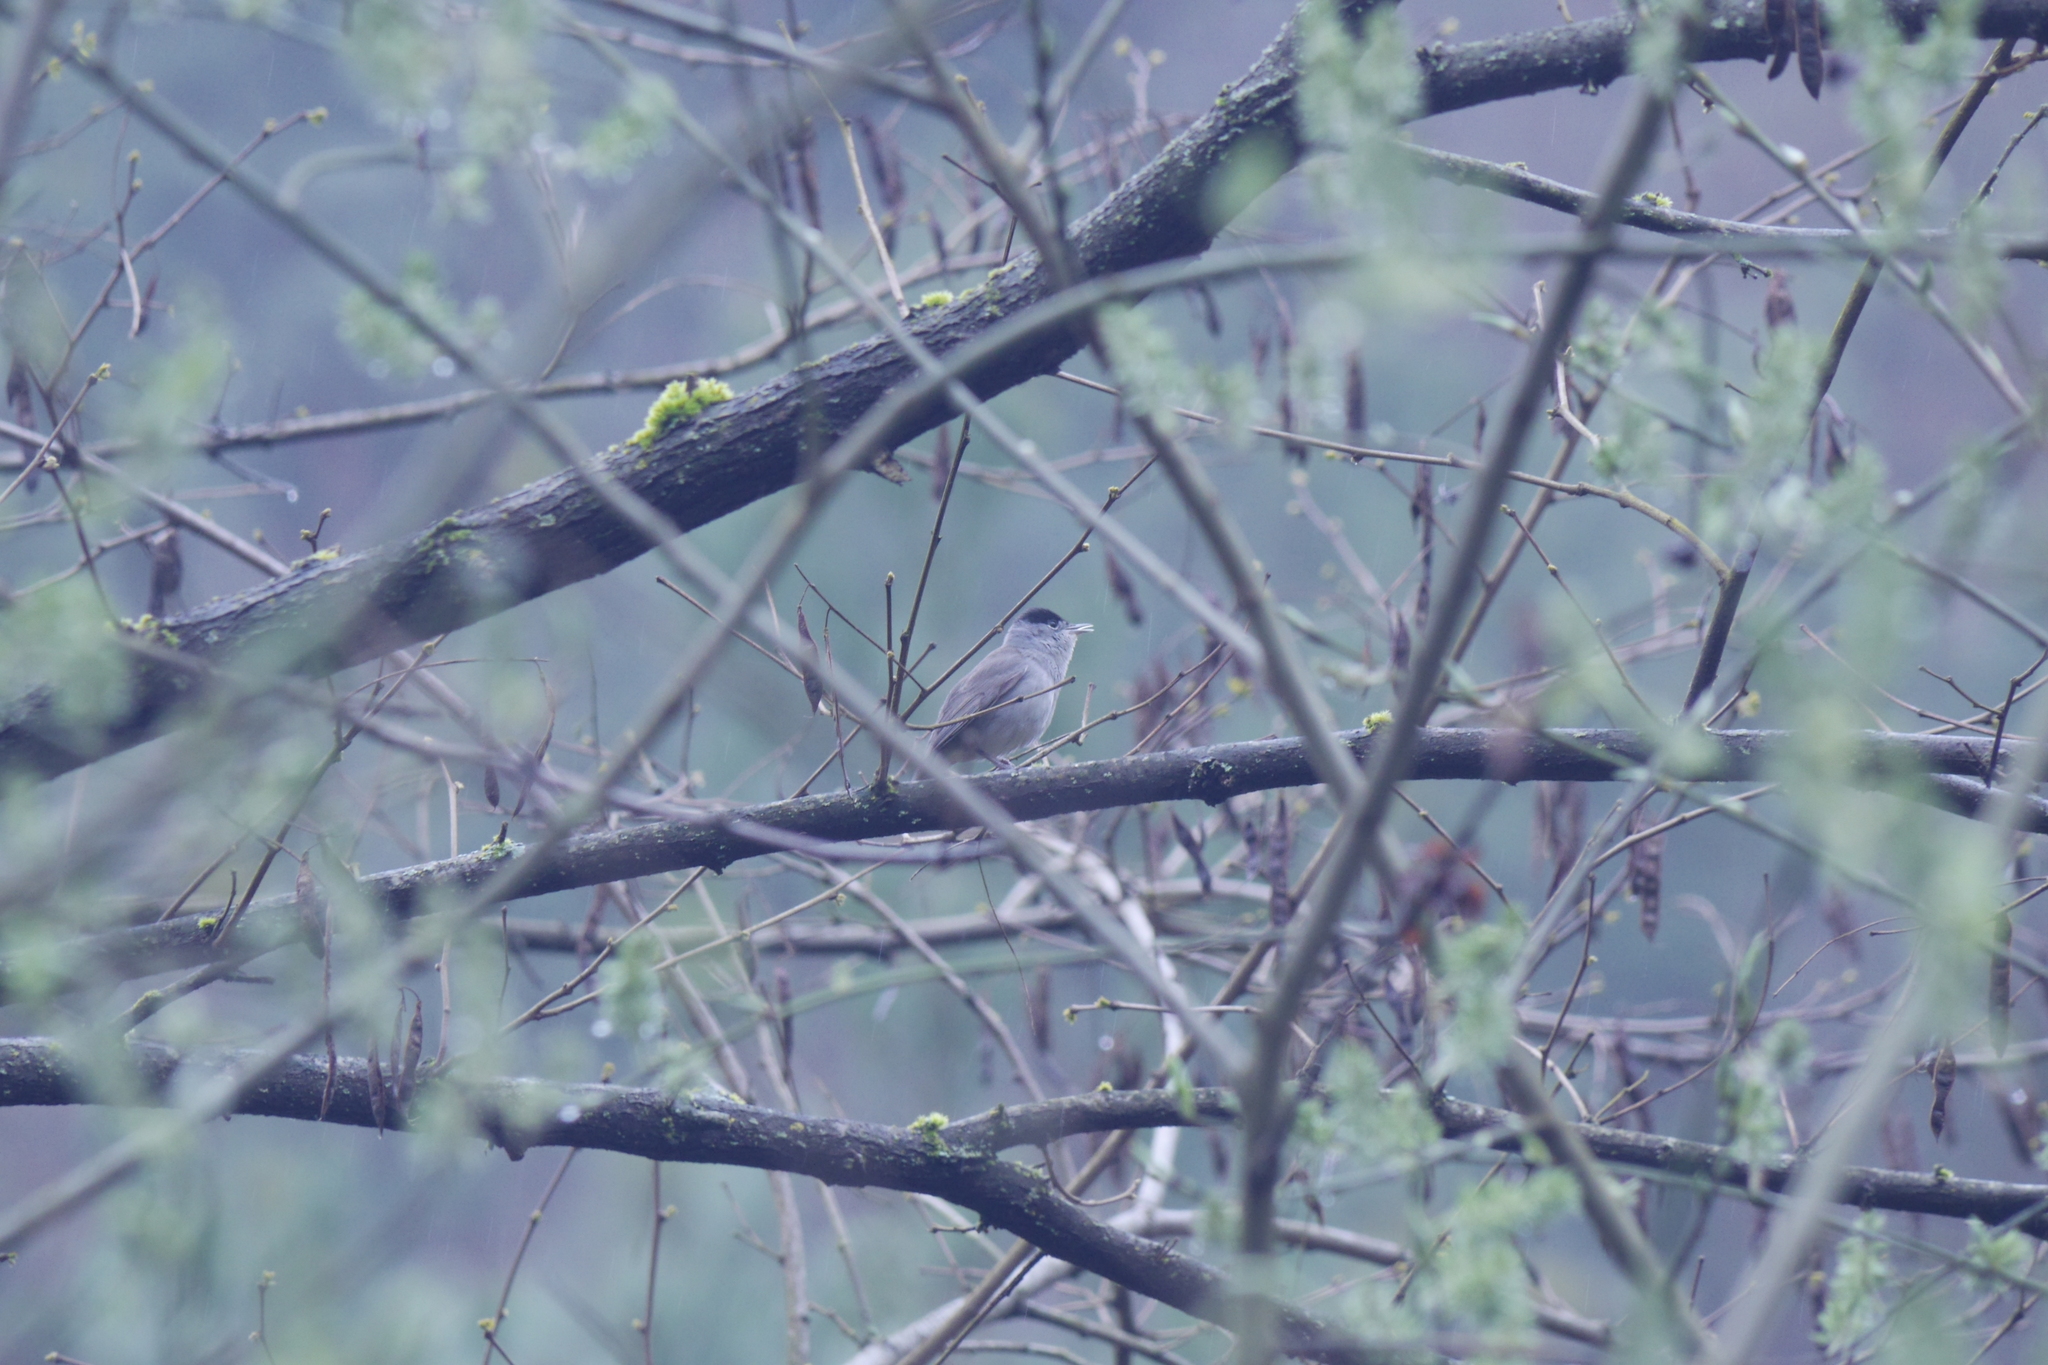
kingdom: Animalia
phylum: Chordata
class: Aves
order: Passeriformes
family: Sylviidae
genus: Sylvia
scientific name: Sylvia atricapilla
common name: Eurasian blackcap
